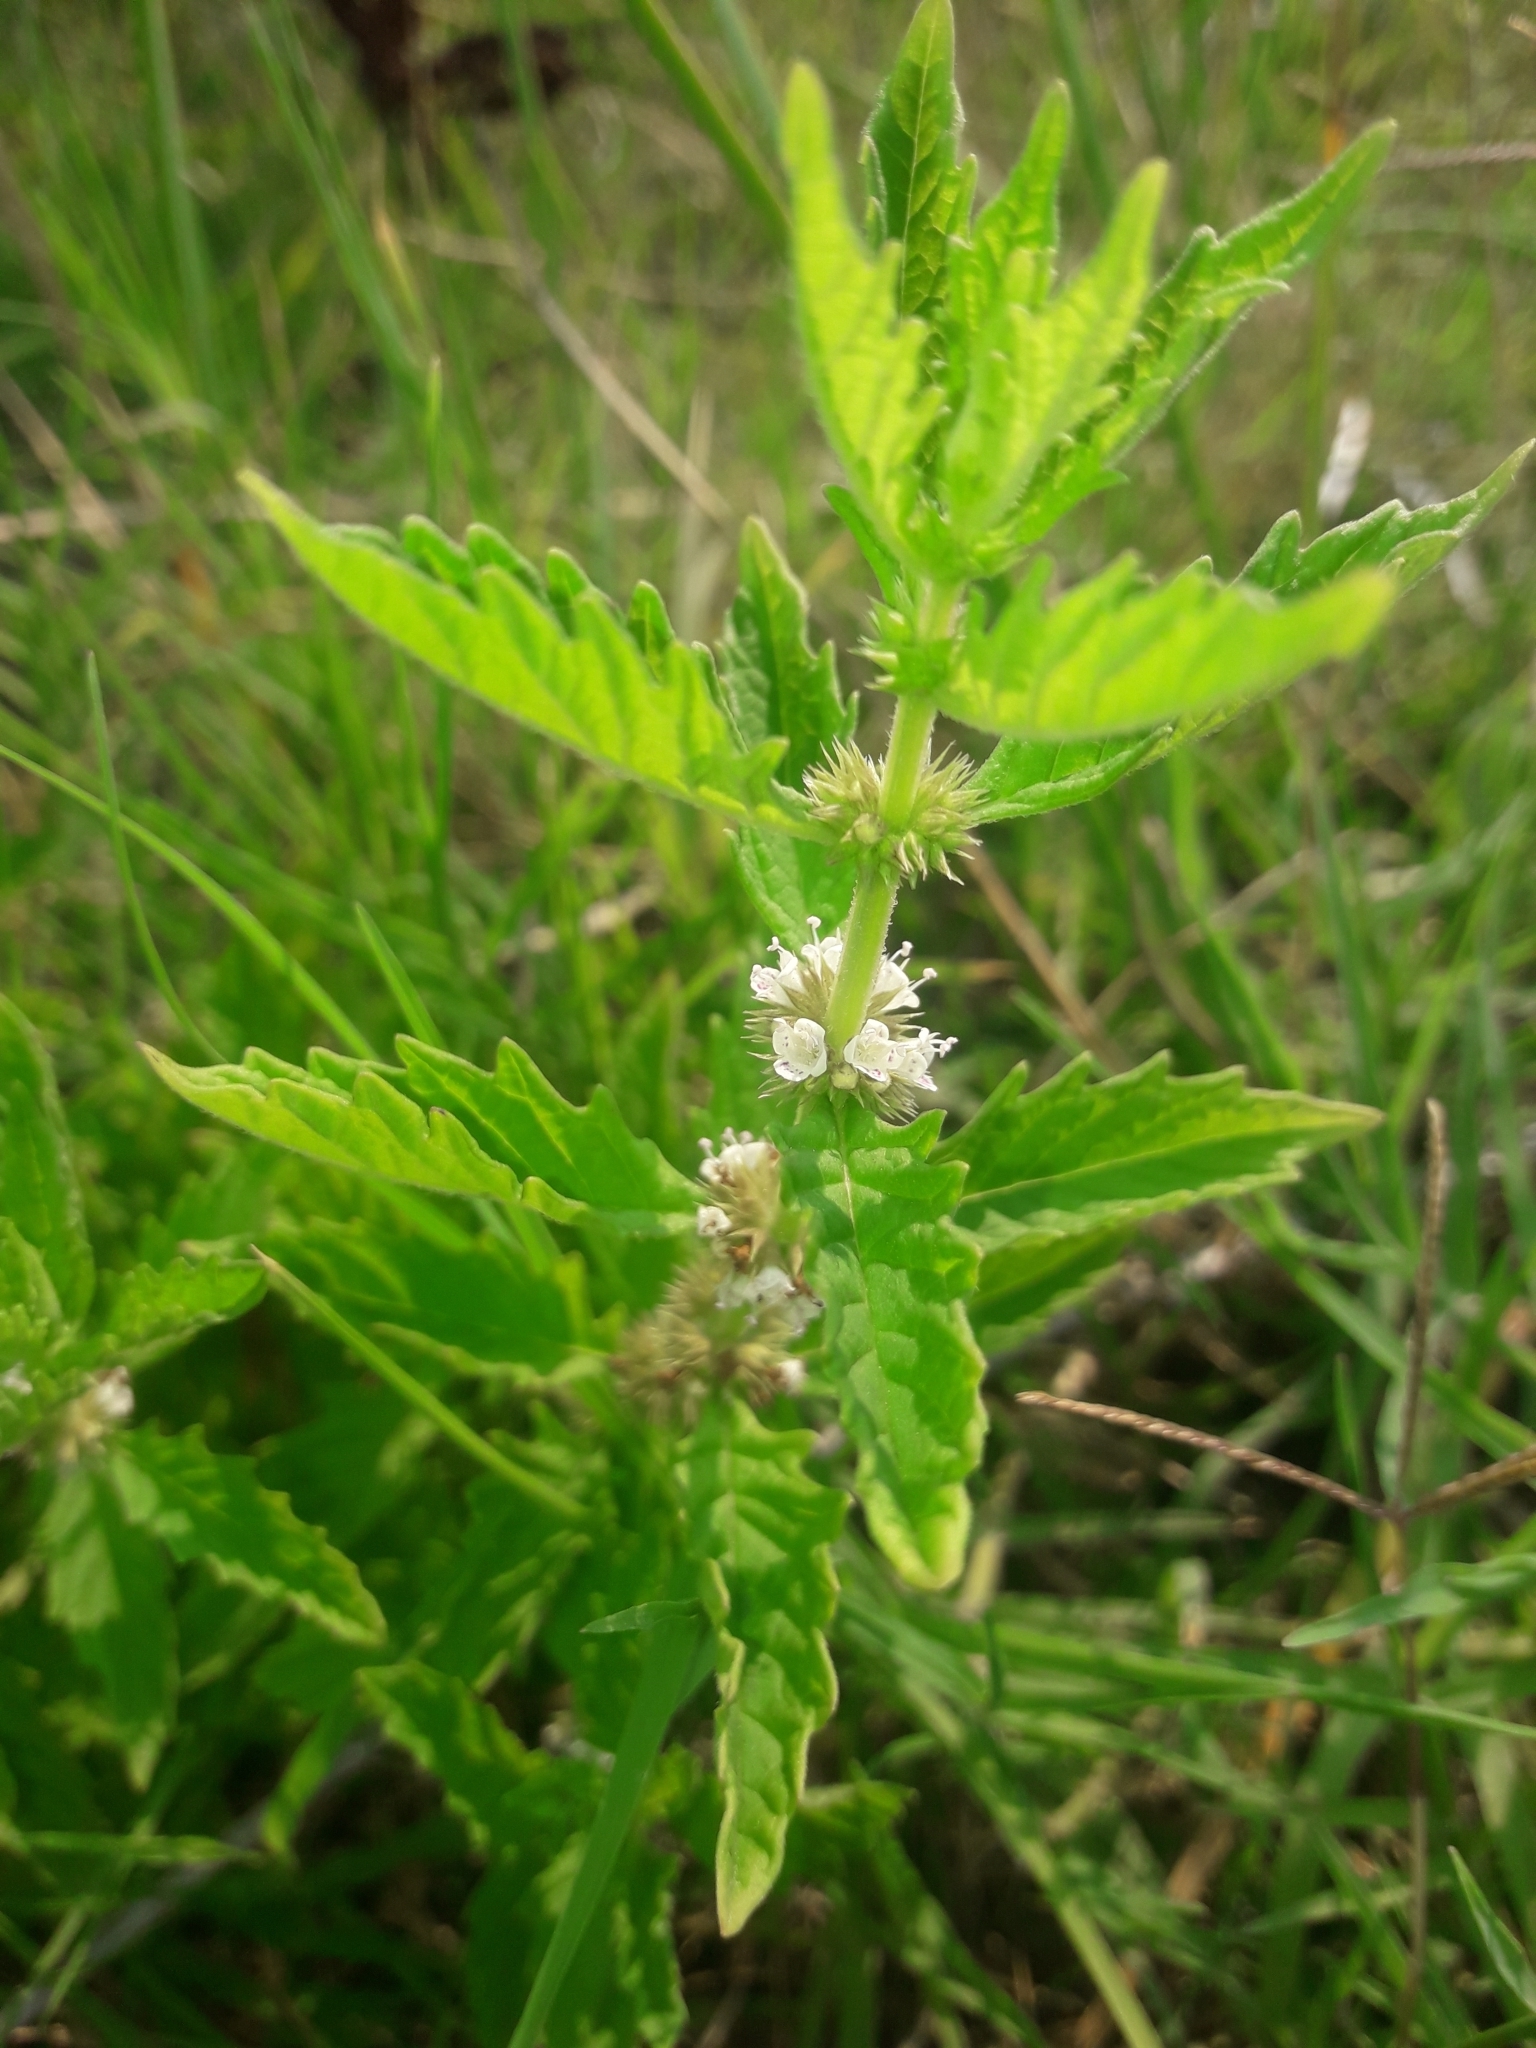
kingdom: Plantae
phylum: Tracheophyta
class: Magnoliopsida
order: Lamiales
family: Lamiaceae
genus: Lycopus
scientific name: Lycopus europaeus
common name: European bugleweed
